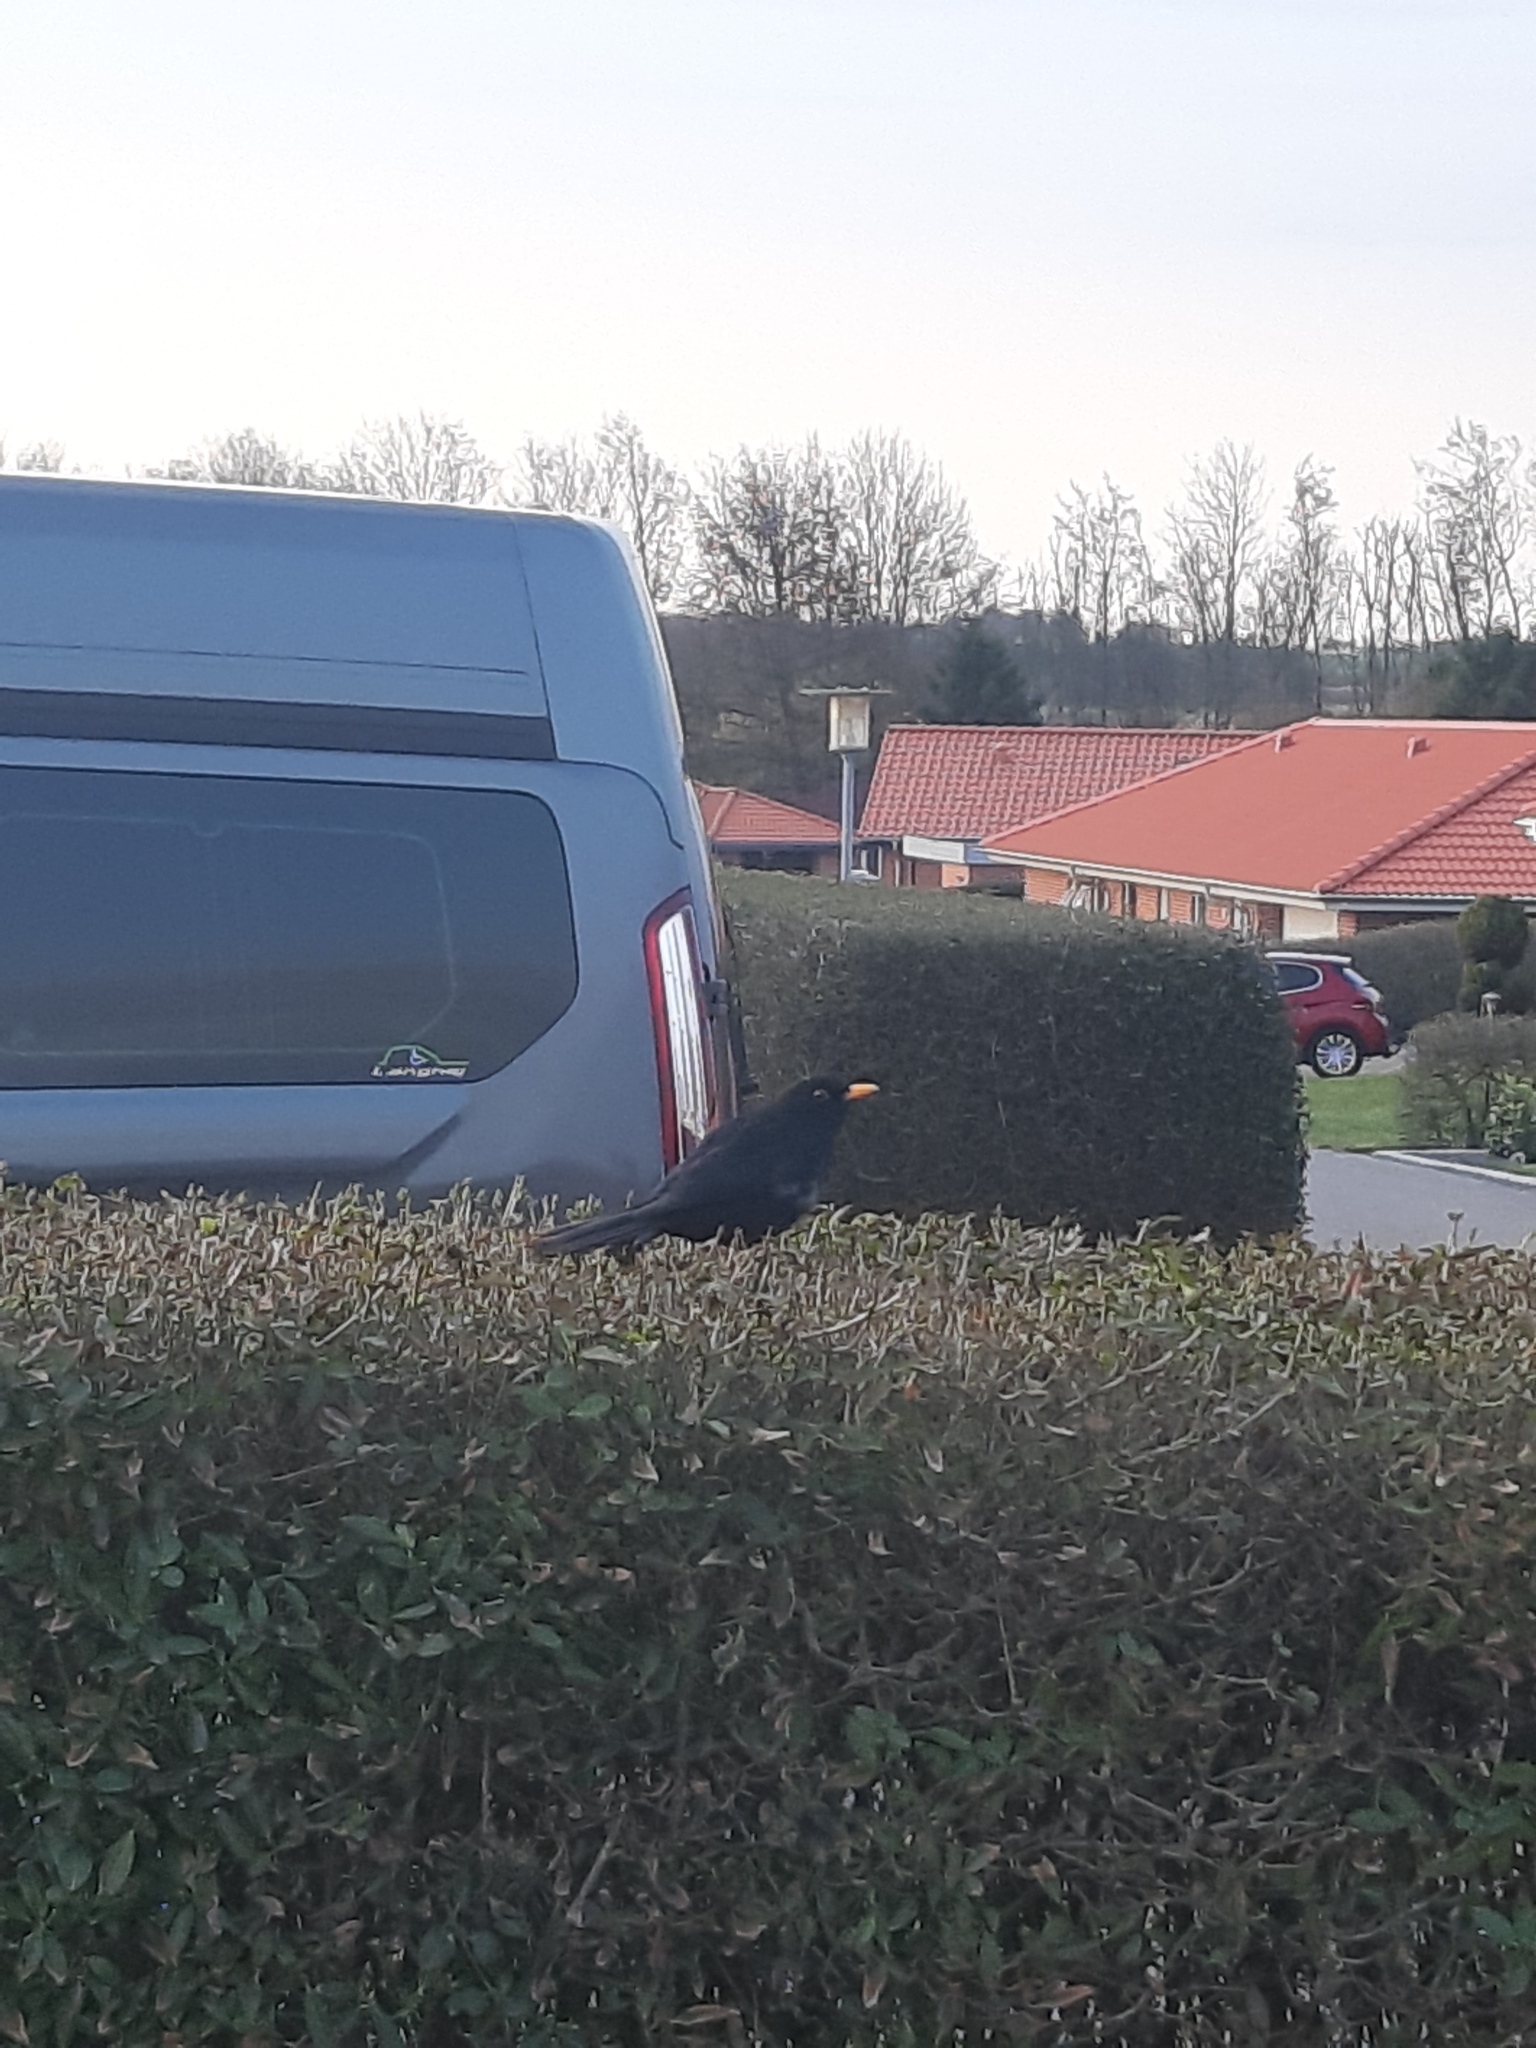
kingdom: Animalia
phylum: Chordata
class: Aves
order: Passeriformes
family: Turdidae
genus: Turdus
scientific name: Turdus merula
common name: Common blackbird
